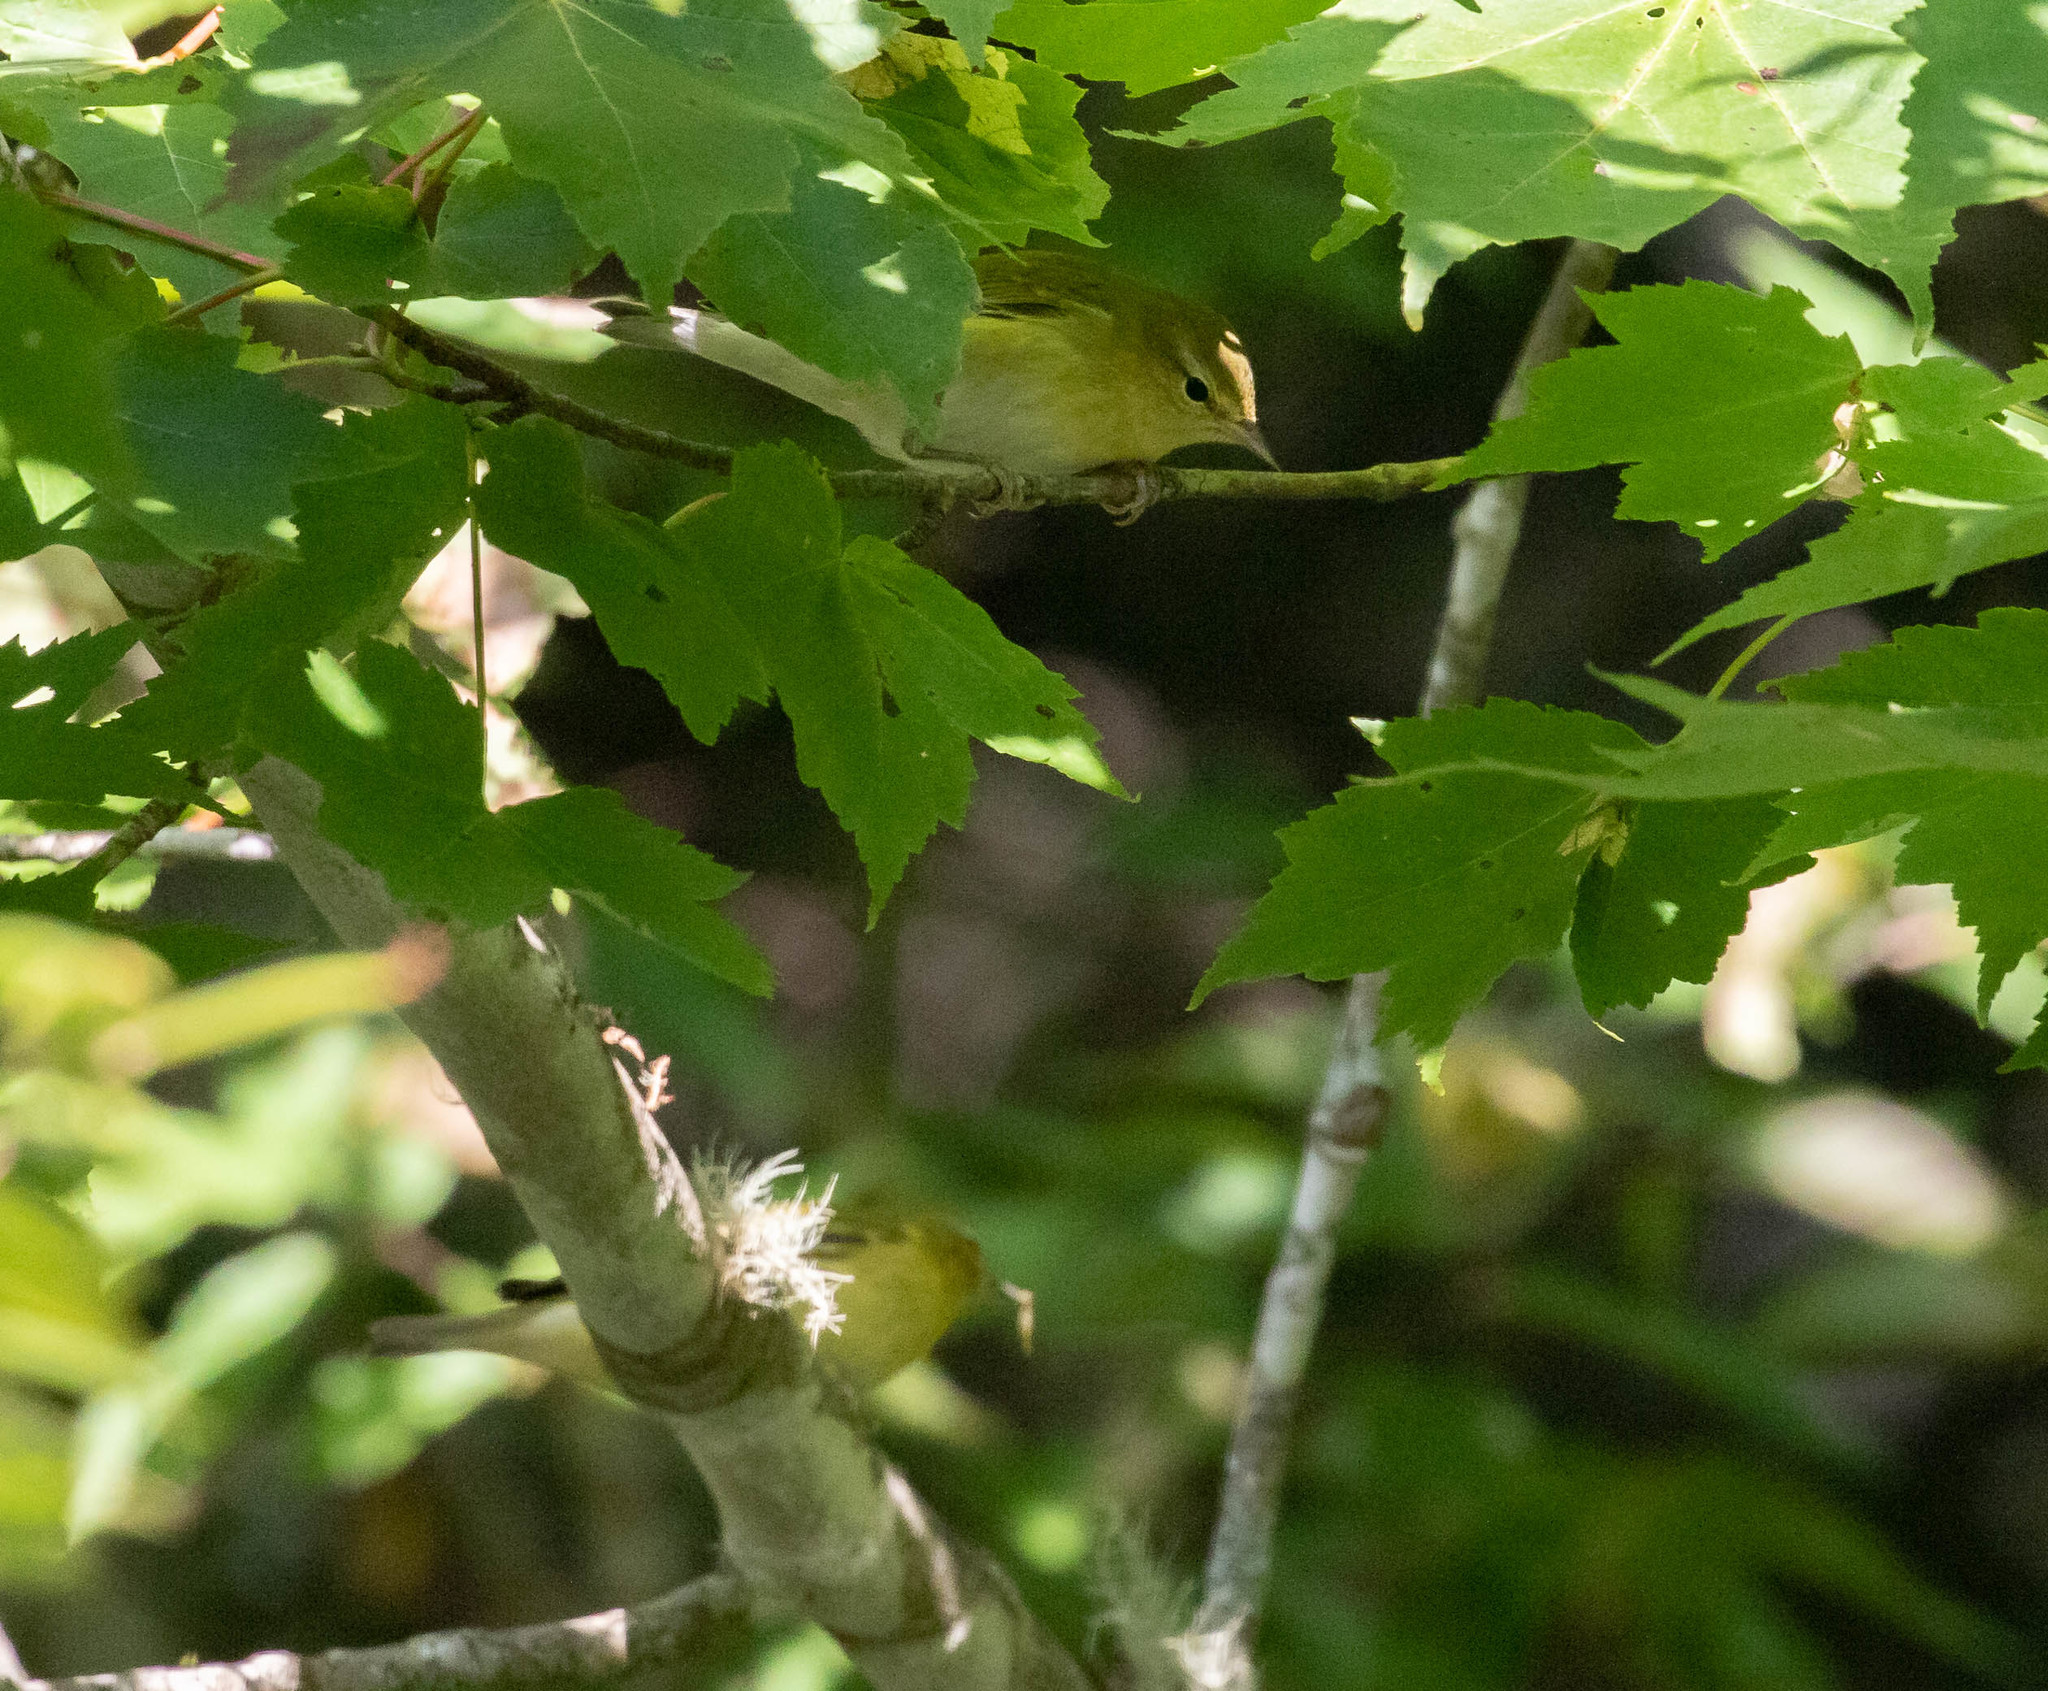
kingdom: Animalia
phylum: Chordata
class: Aves
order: Passeriformes
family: Parulidae
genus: Leiothlypis
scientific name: Leiothlypis peregrina
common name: Tennessee warbler
